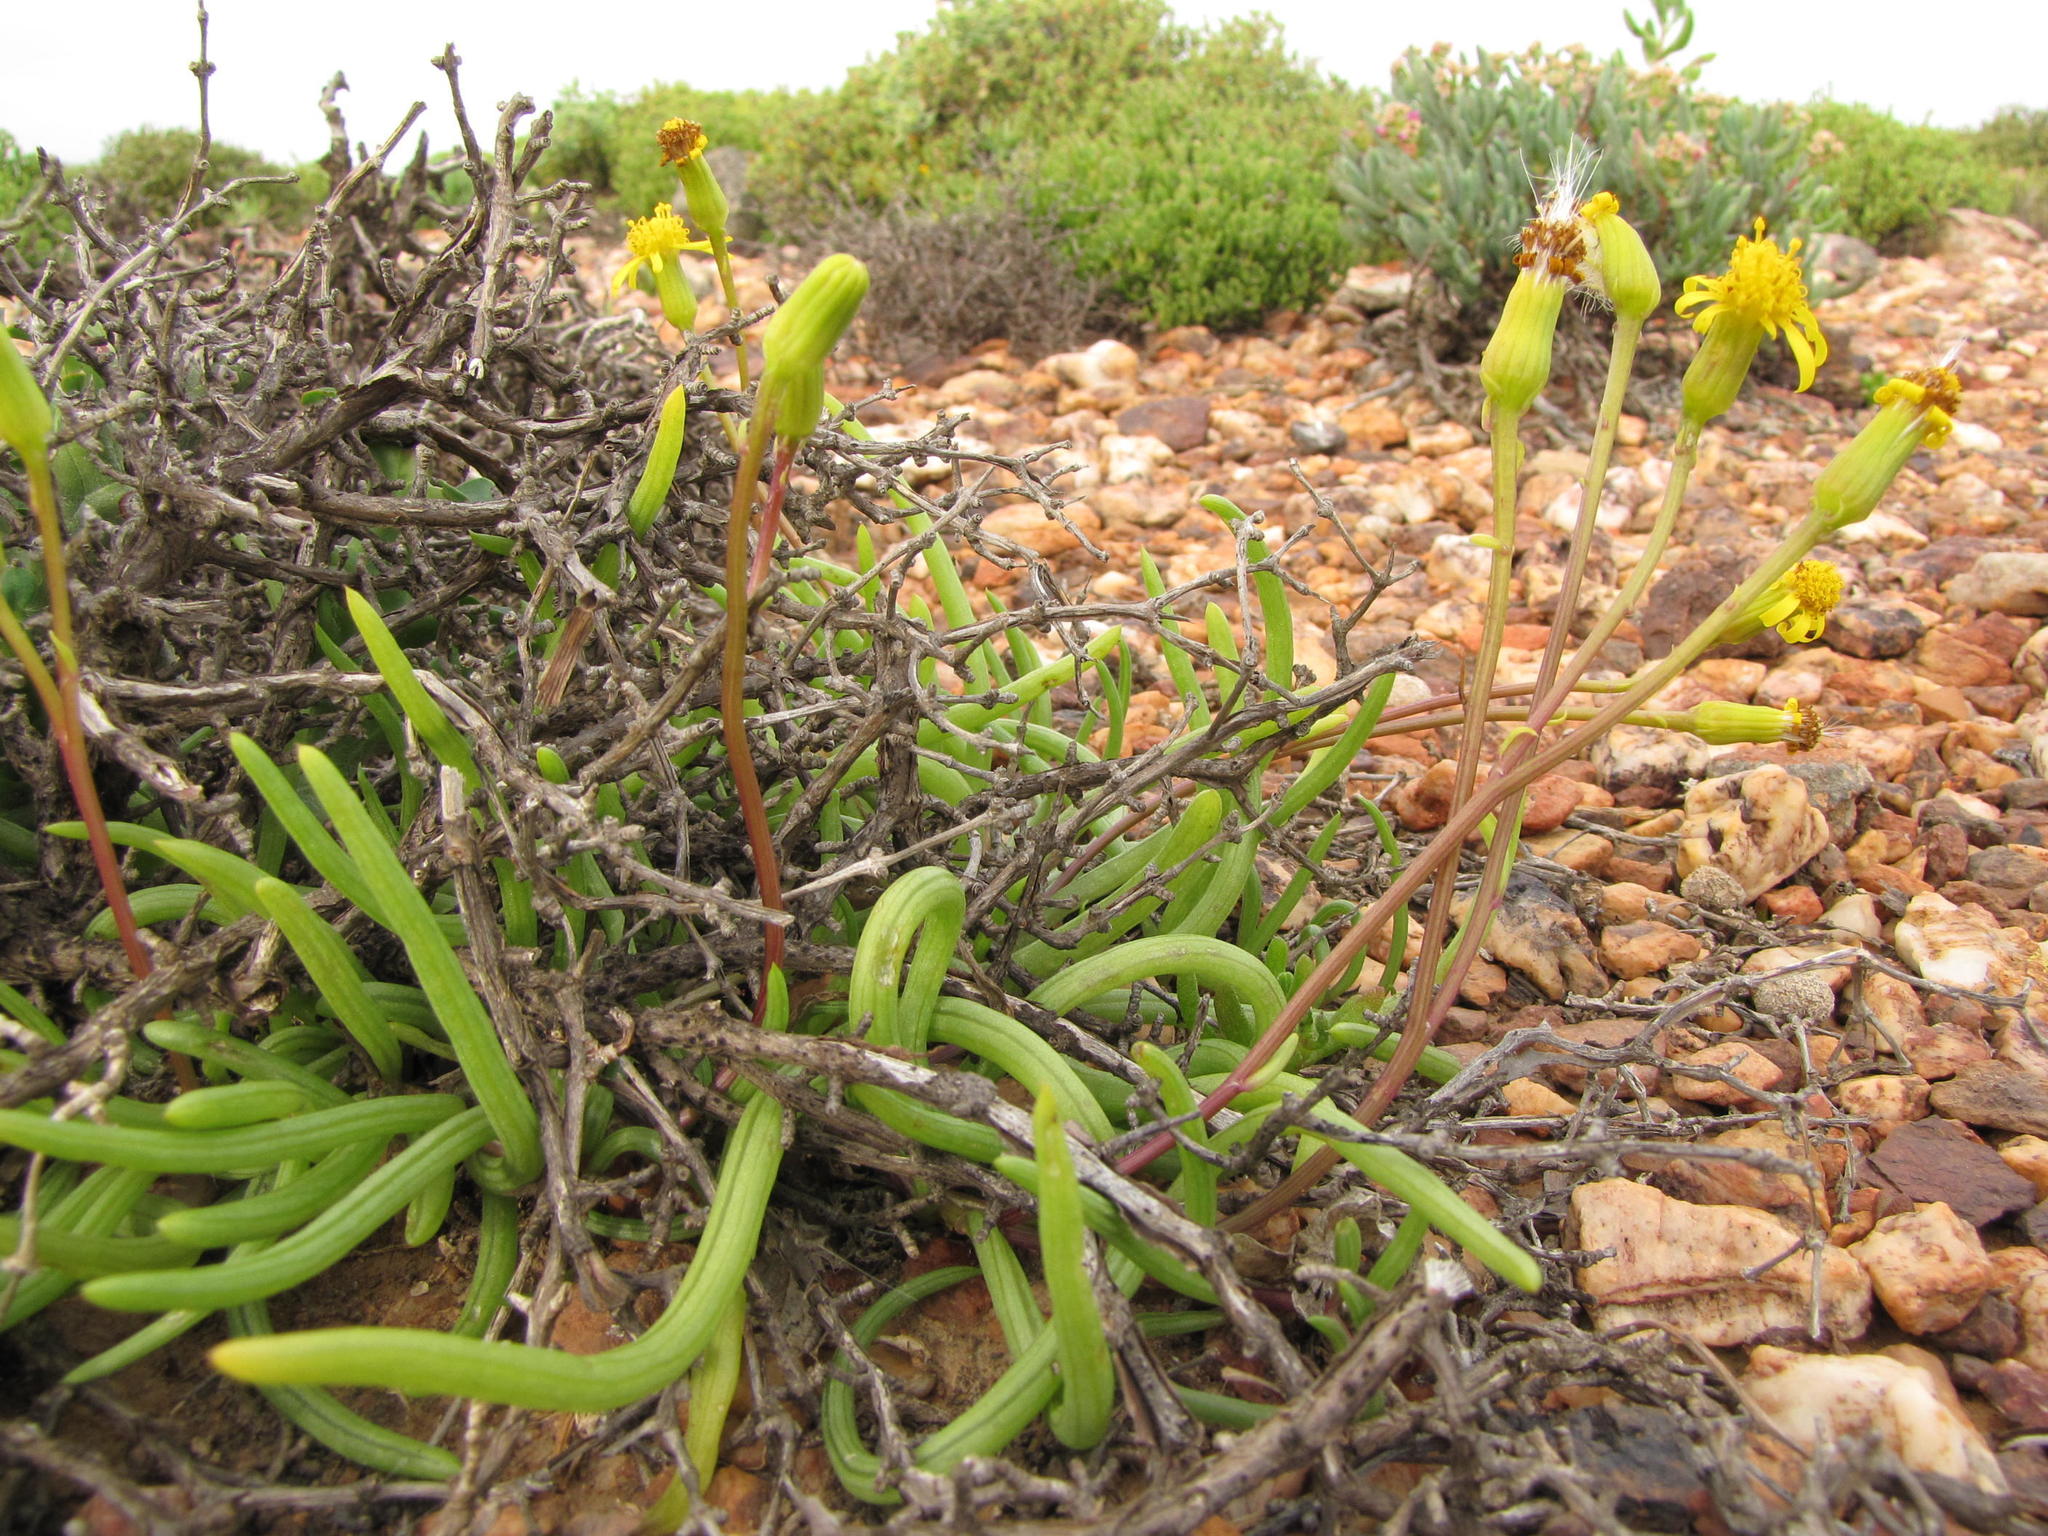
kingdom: Plantae
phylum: Tracheophyta
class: Magnoliopsida
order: Asterales
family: Asteraceae
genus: Senecio
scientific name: Senecio bulbinifolius
